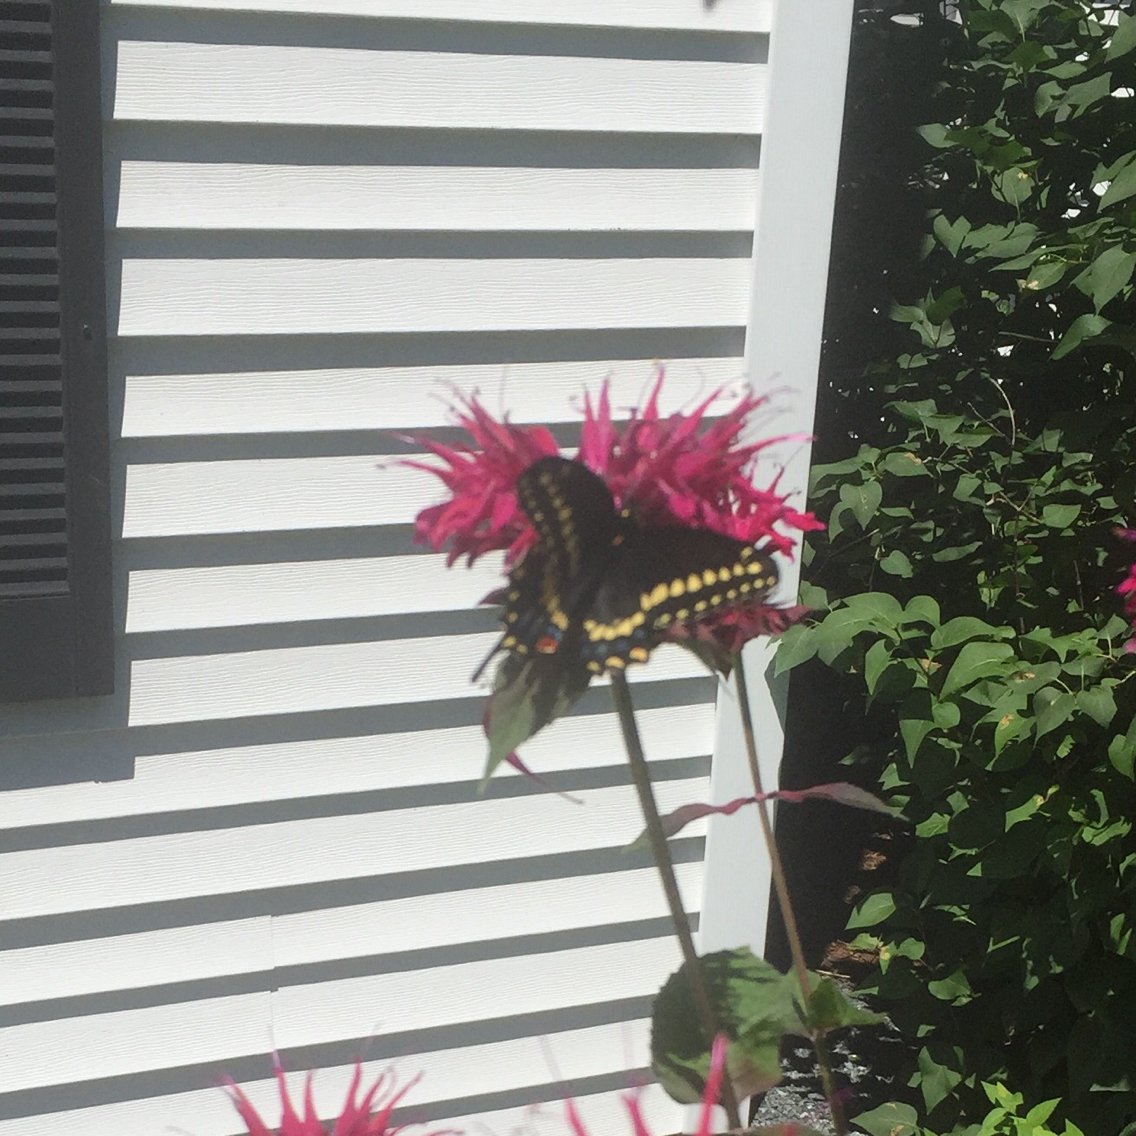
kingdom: Animalia
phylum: Arthropoda
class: Insecta
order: Lepidoptera
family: Papilionidae
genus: Papilio
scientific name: Papilio polyxenes
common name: Black swallowtail
